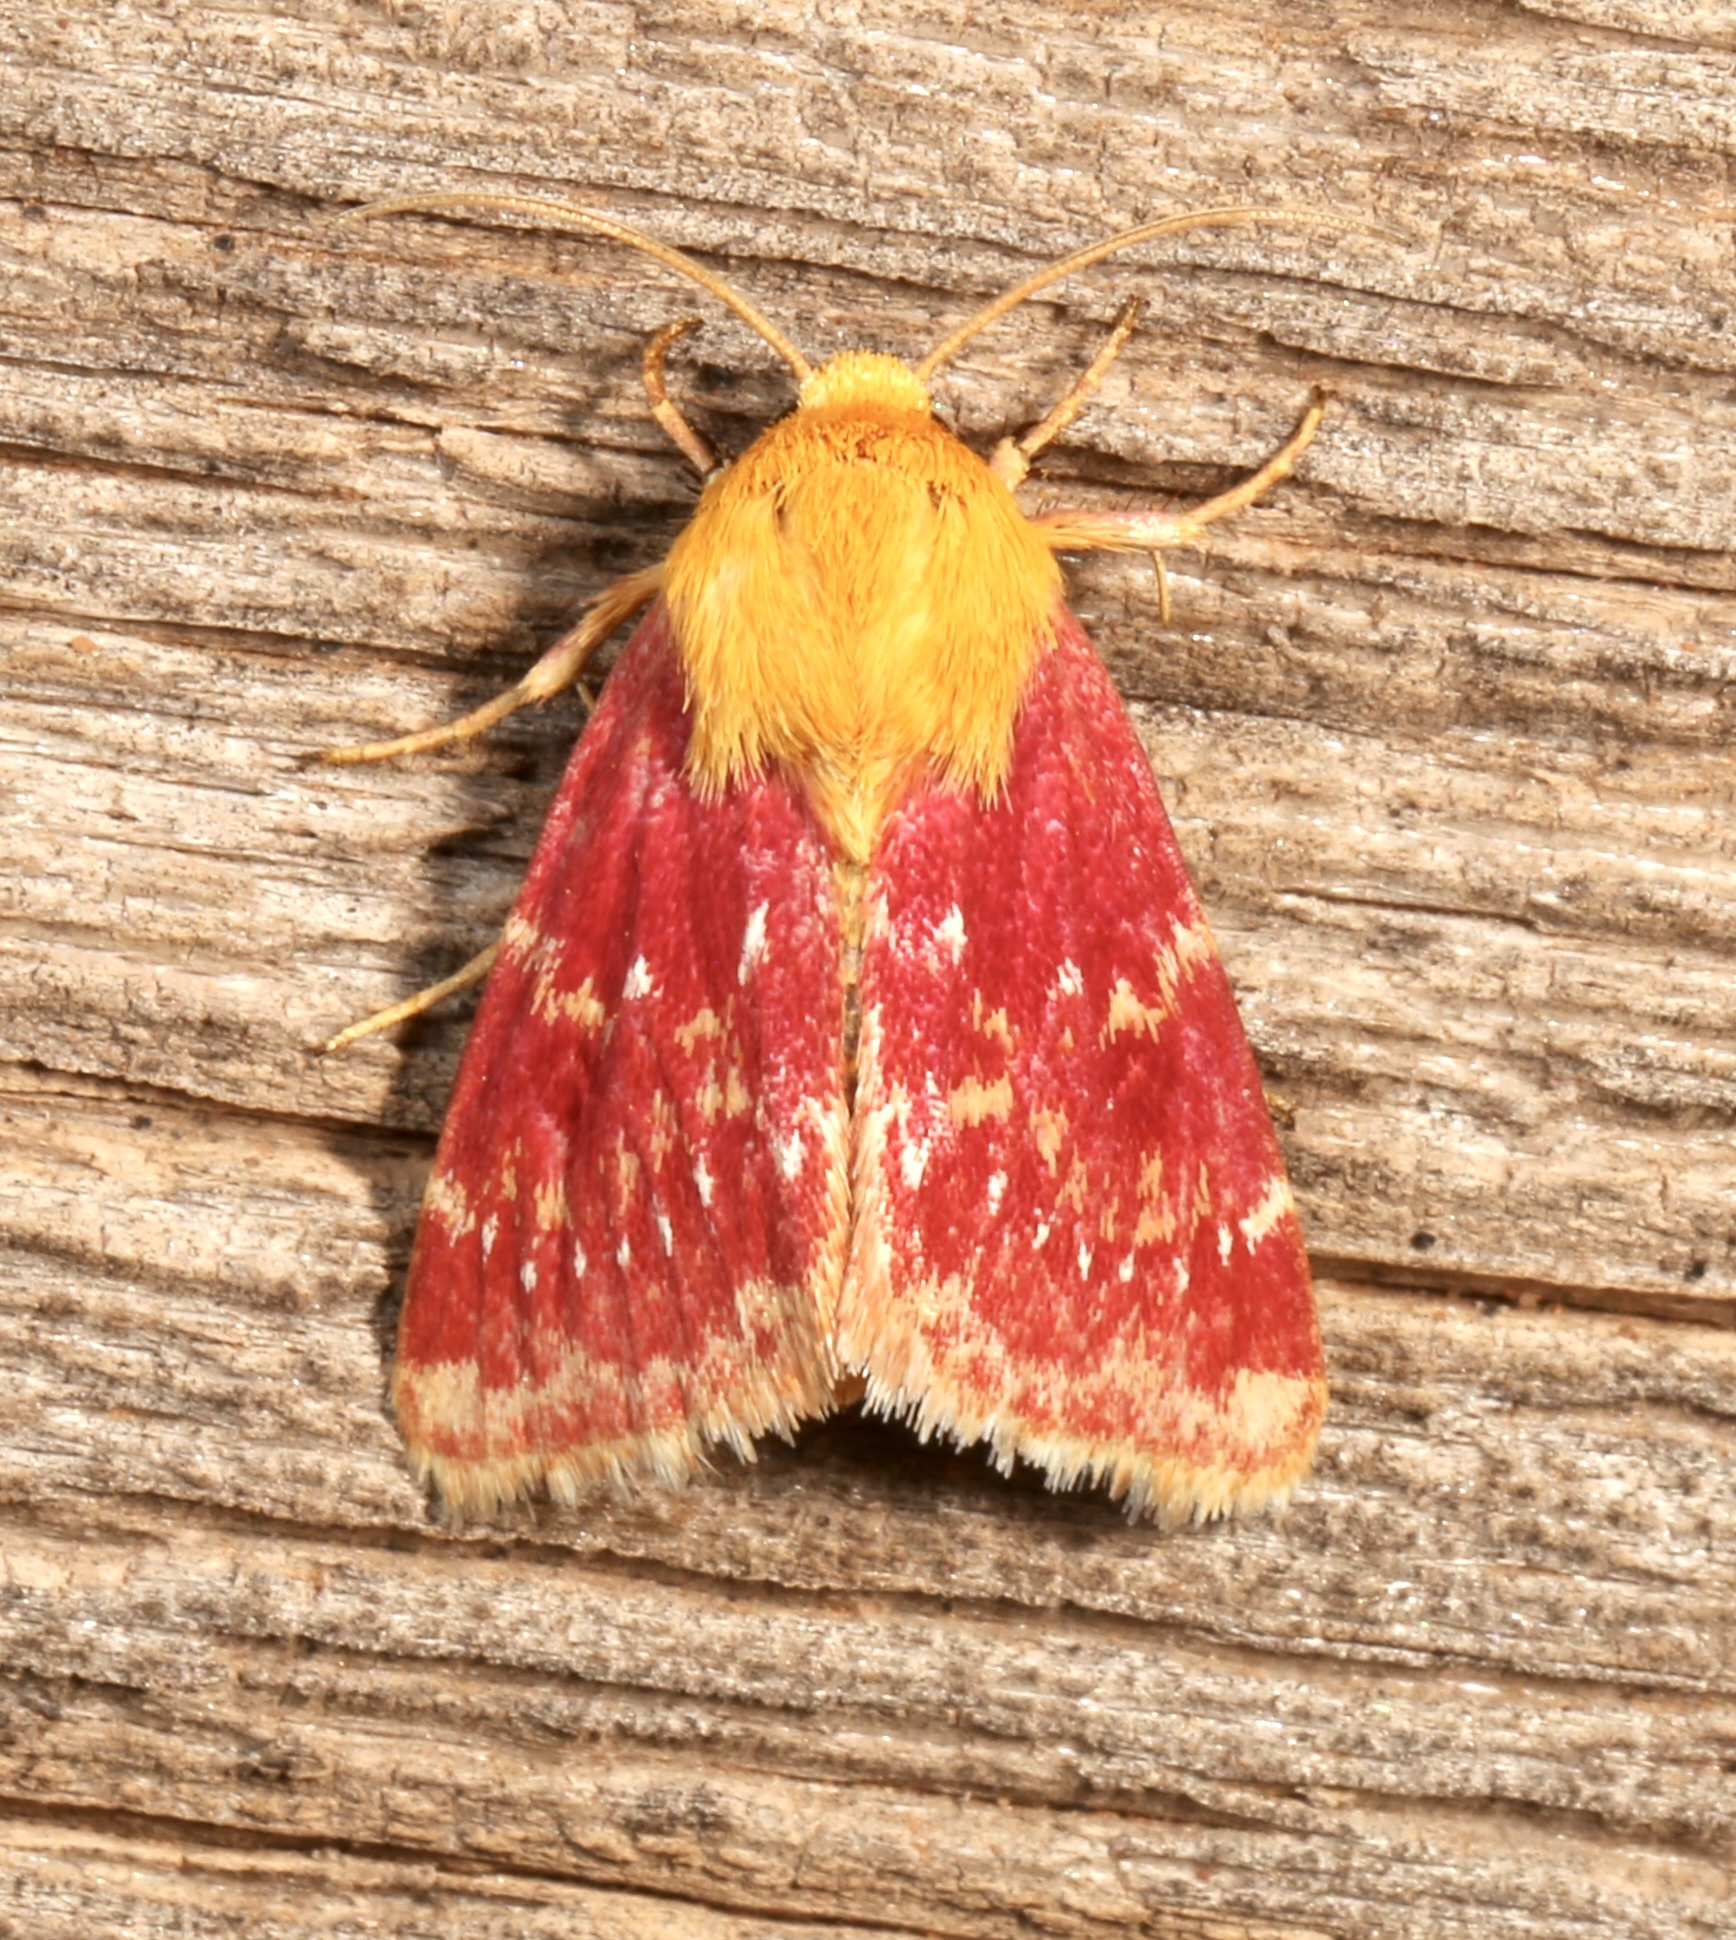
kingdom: Animalia
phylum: Arthropoda
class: Insecta
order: Lepidoptera
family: Noctuidae
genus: Schinia
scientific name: Schinia volupia
